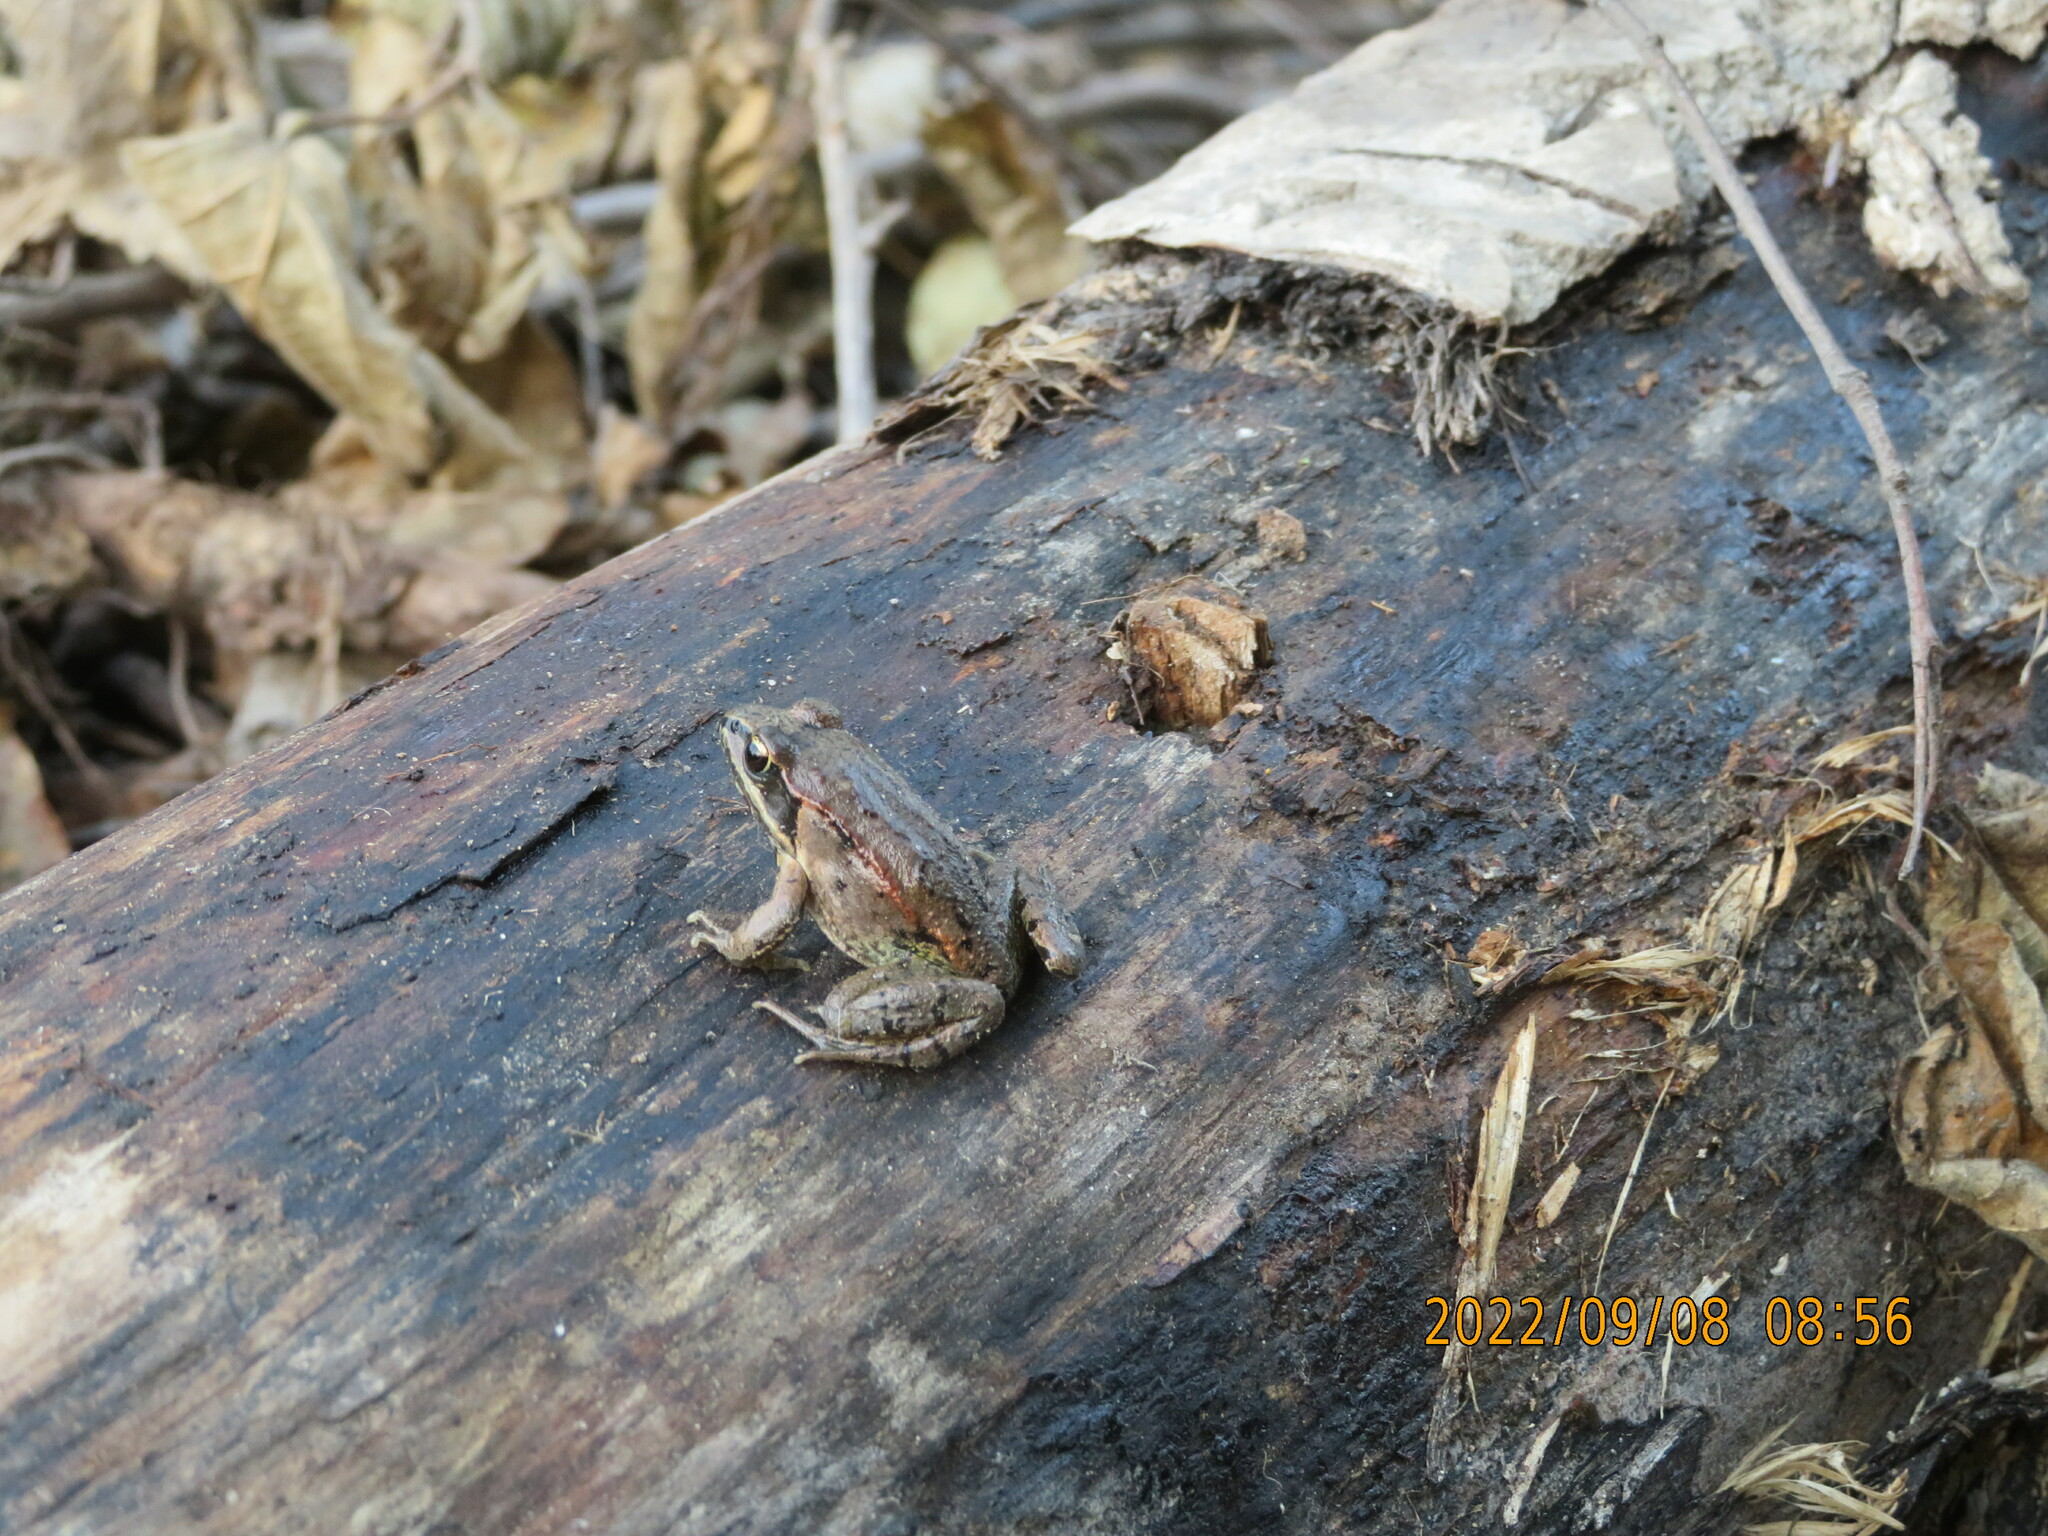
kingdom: Animalia
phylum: Chordata
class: Amphibia
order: Anura
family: Ranidae
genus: Lithobates
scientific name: Lithobates sylvaticus
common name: Wood frog
